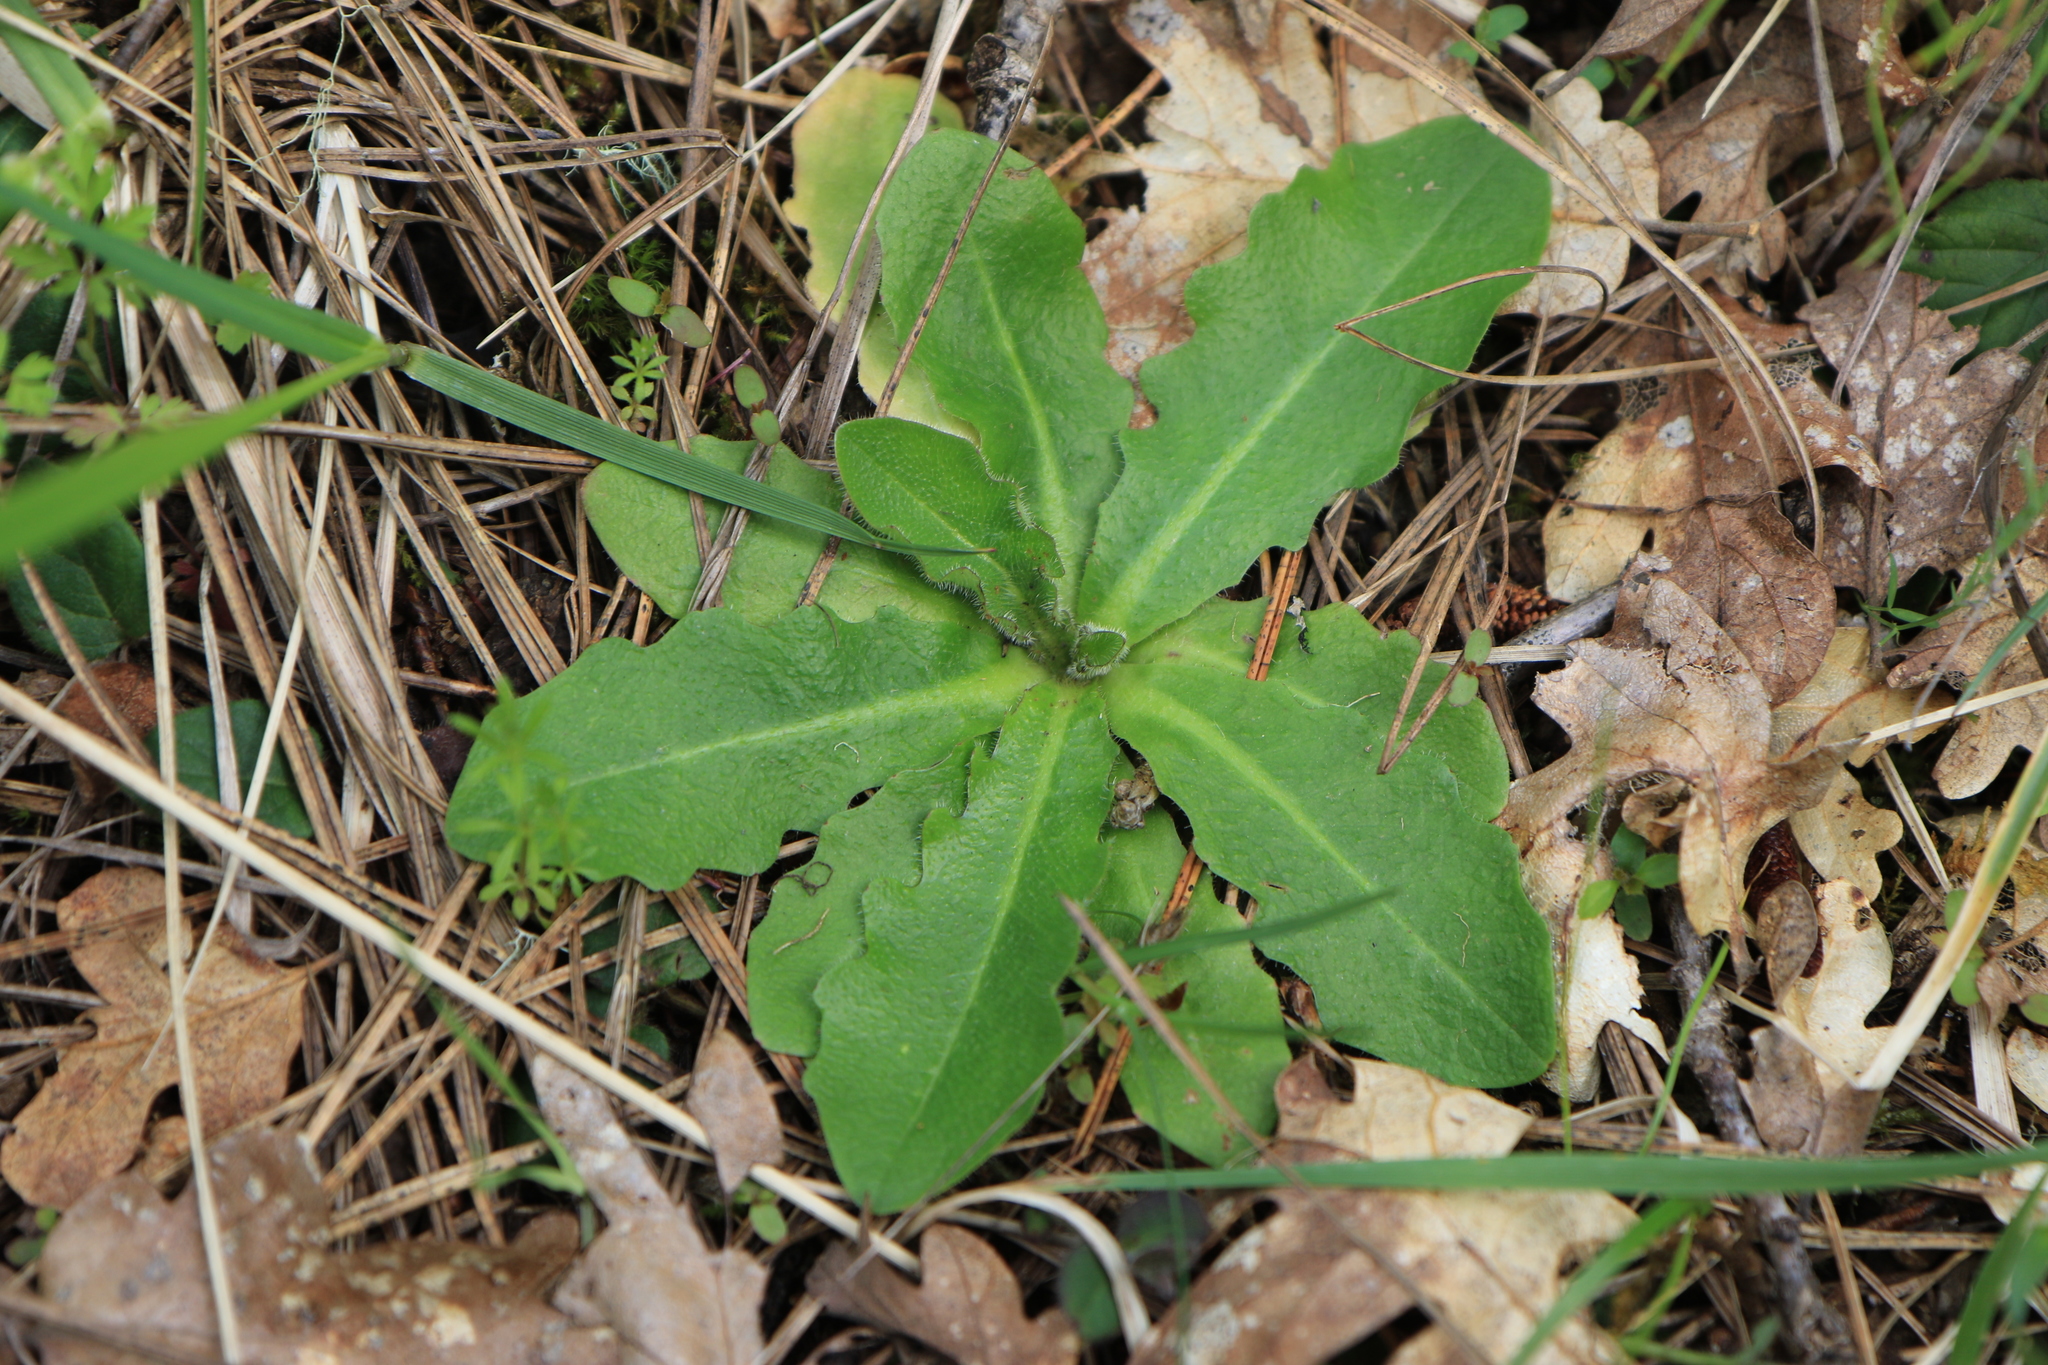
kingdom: Plantae
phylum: Tracheophyta
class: Magnoliopsida
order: Asterales
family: Asteraceae
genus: Hypochaeris
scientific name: Hypochaeris radicata
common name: Flatweed
